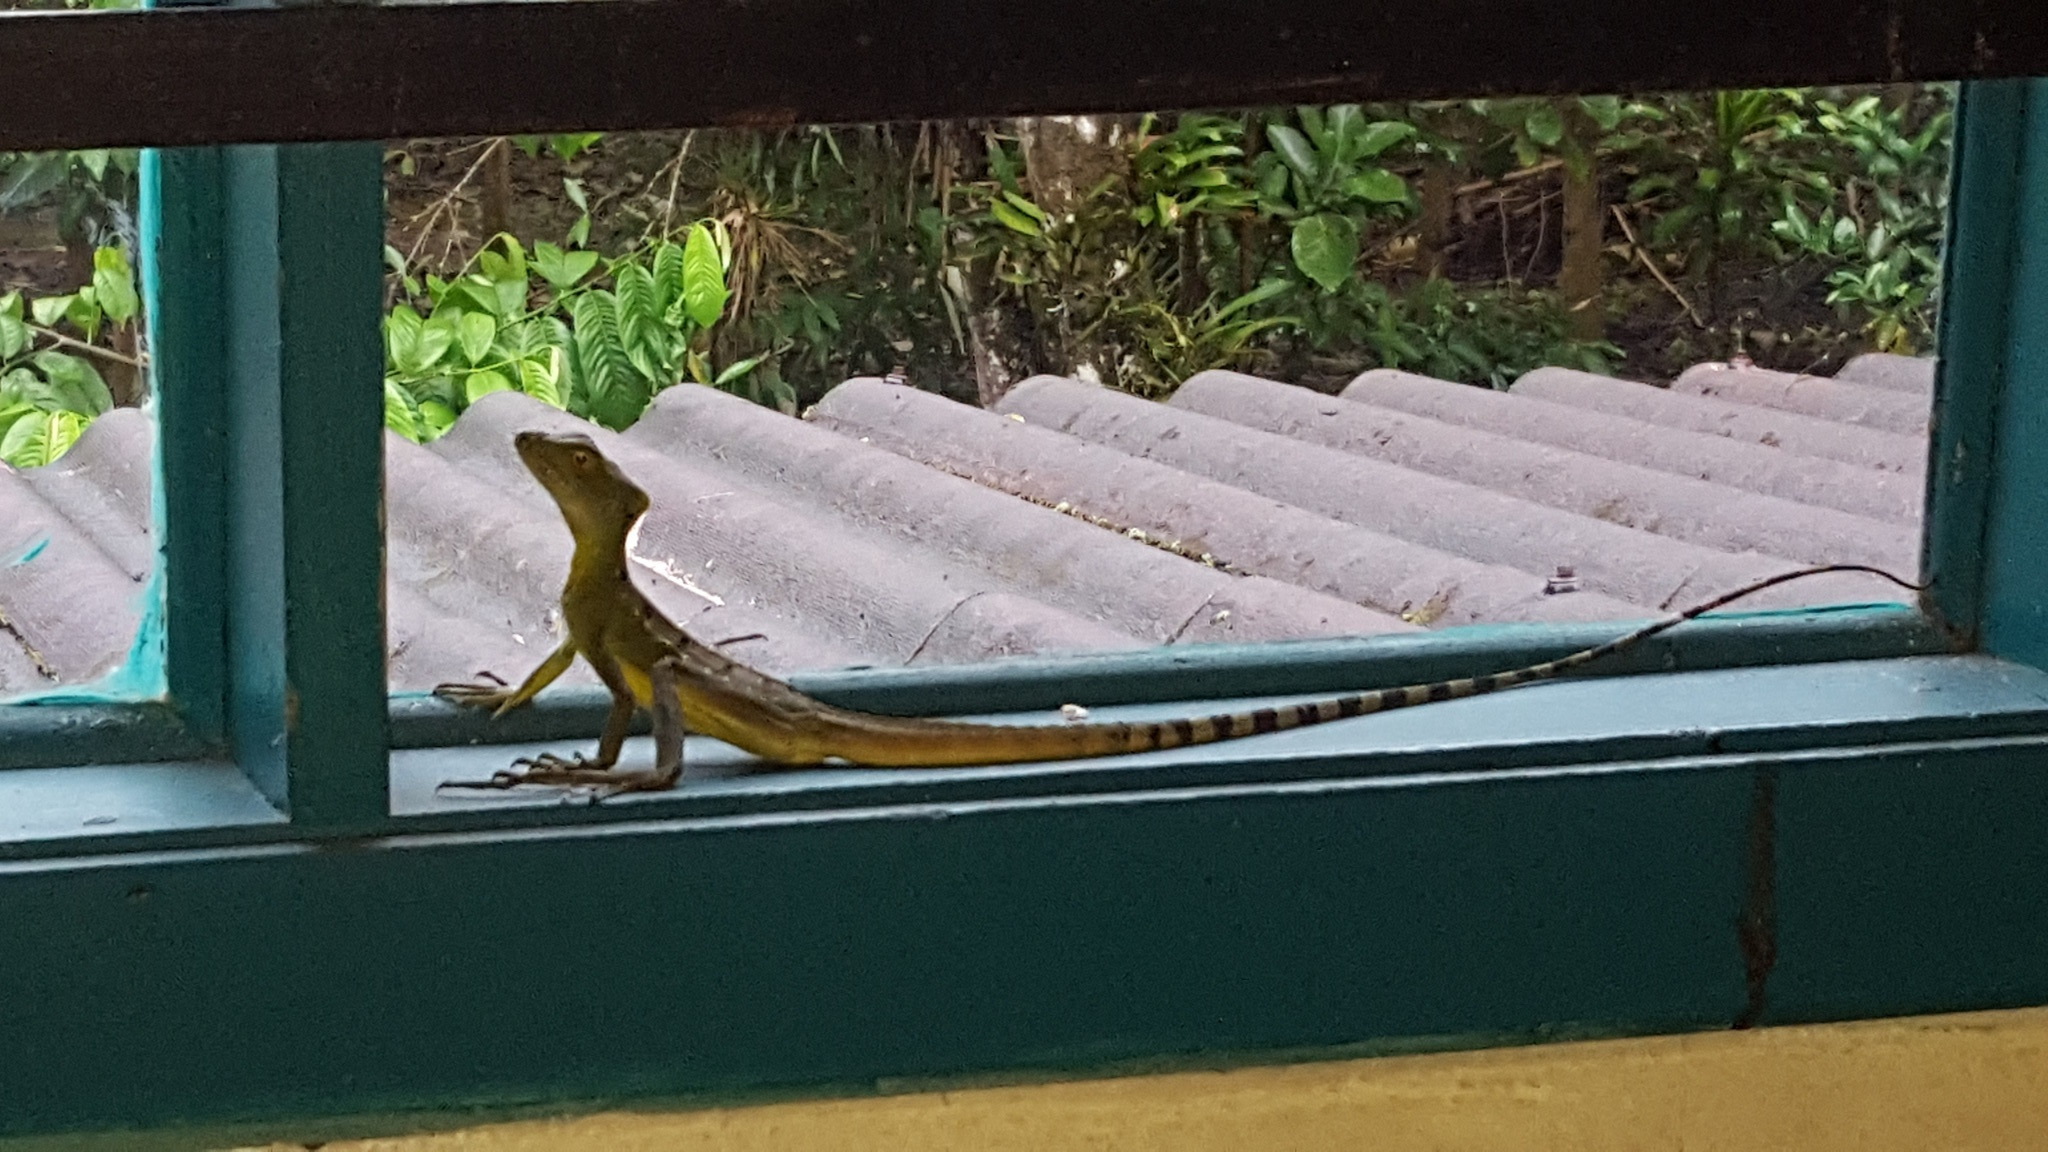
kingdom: Animalia
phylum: Chordata
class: Squamata
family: Corytophanidae
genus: Basiliscus
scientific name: Basiliscus plumifrons
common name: Green basilisk
